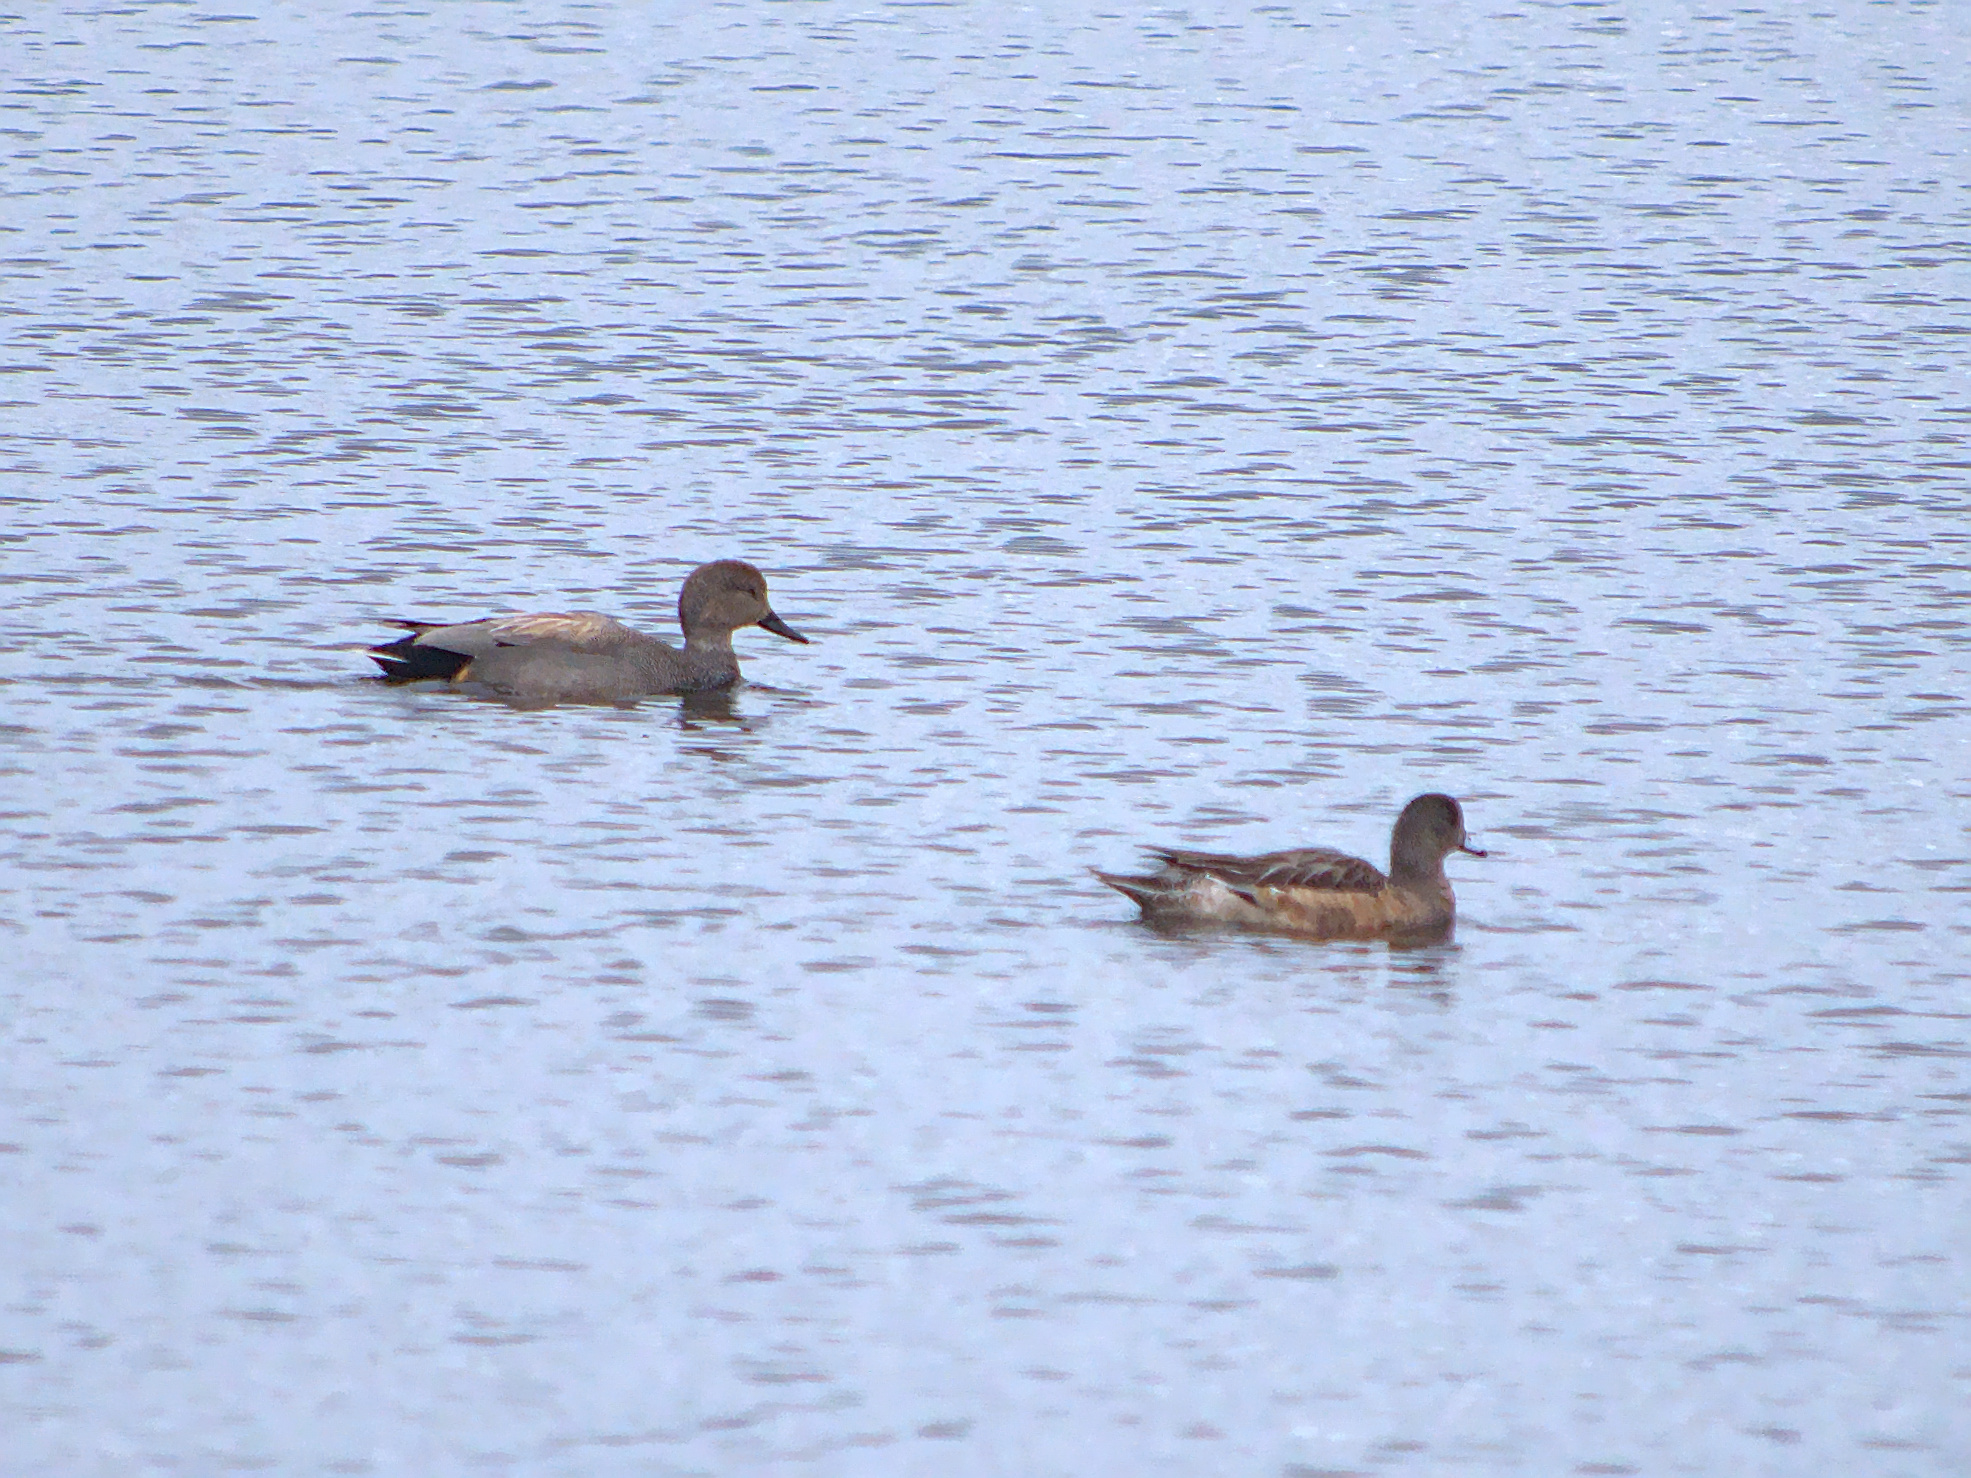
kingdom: Animalia
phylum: Chordata
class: Aves
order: Anseriformes
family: Anatidae
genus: Mareca
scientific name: Mareca strepera
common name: Gadwall
